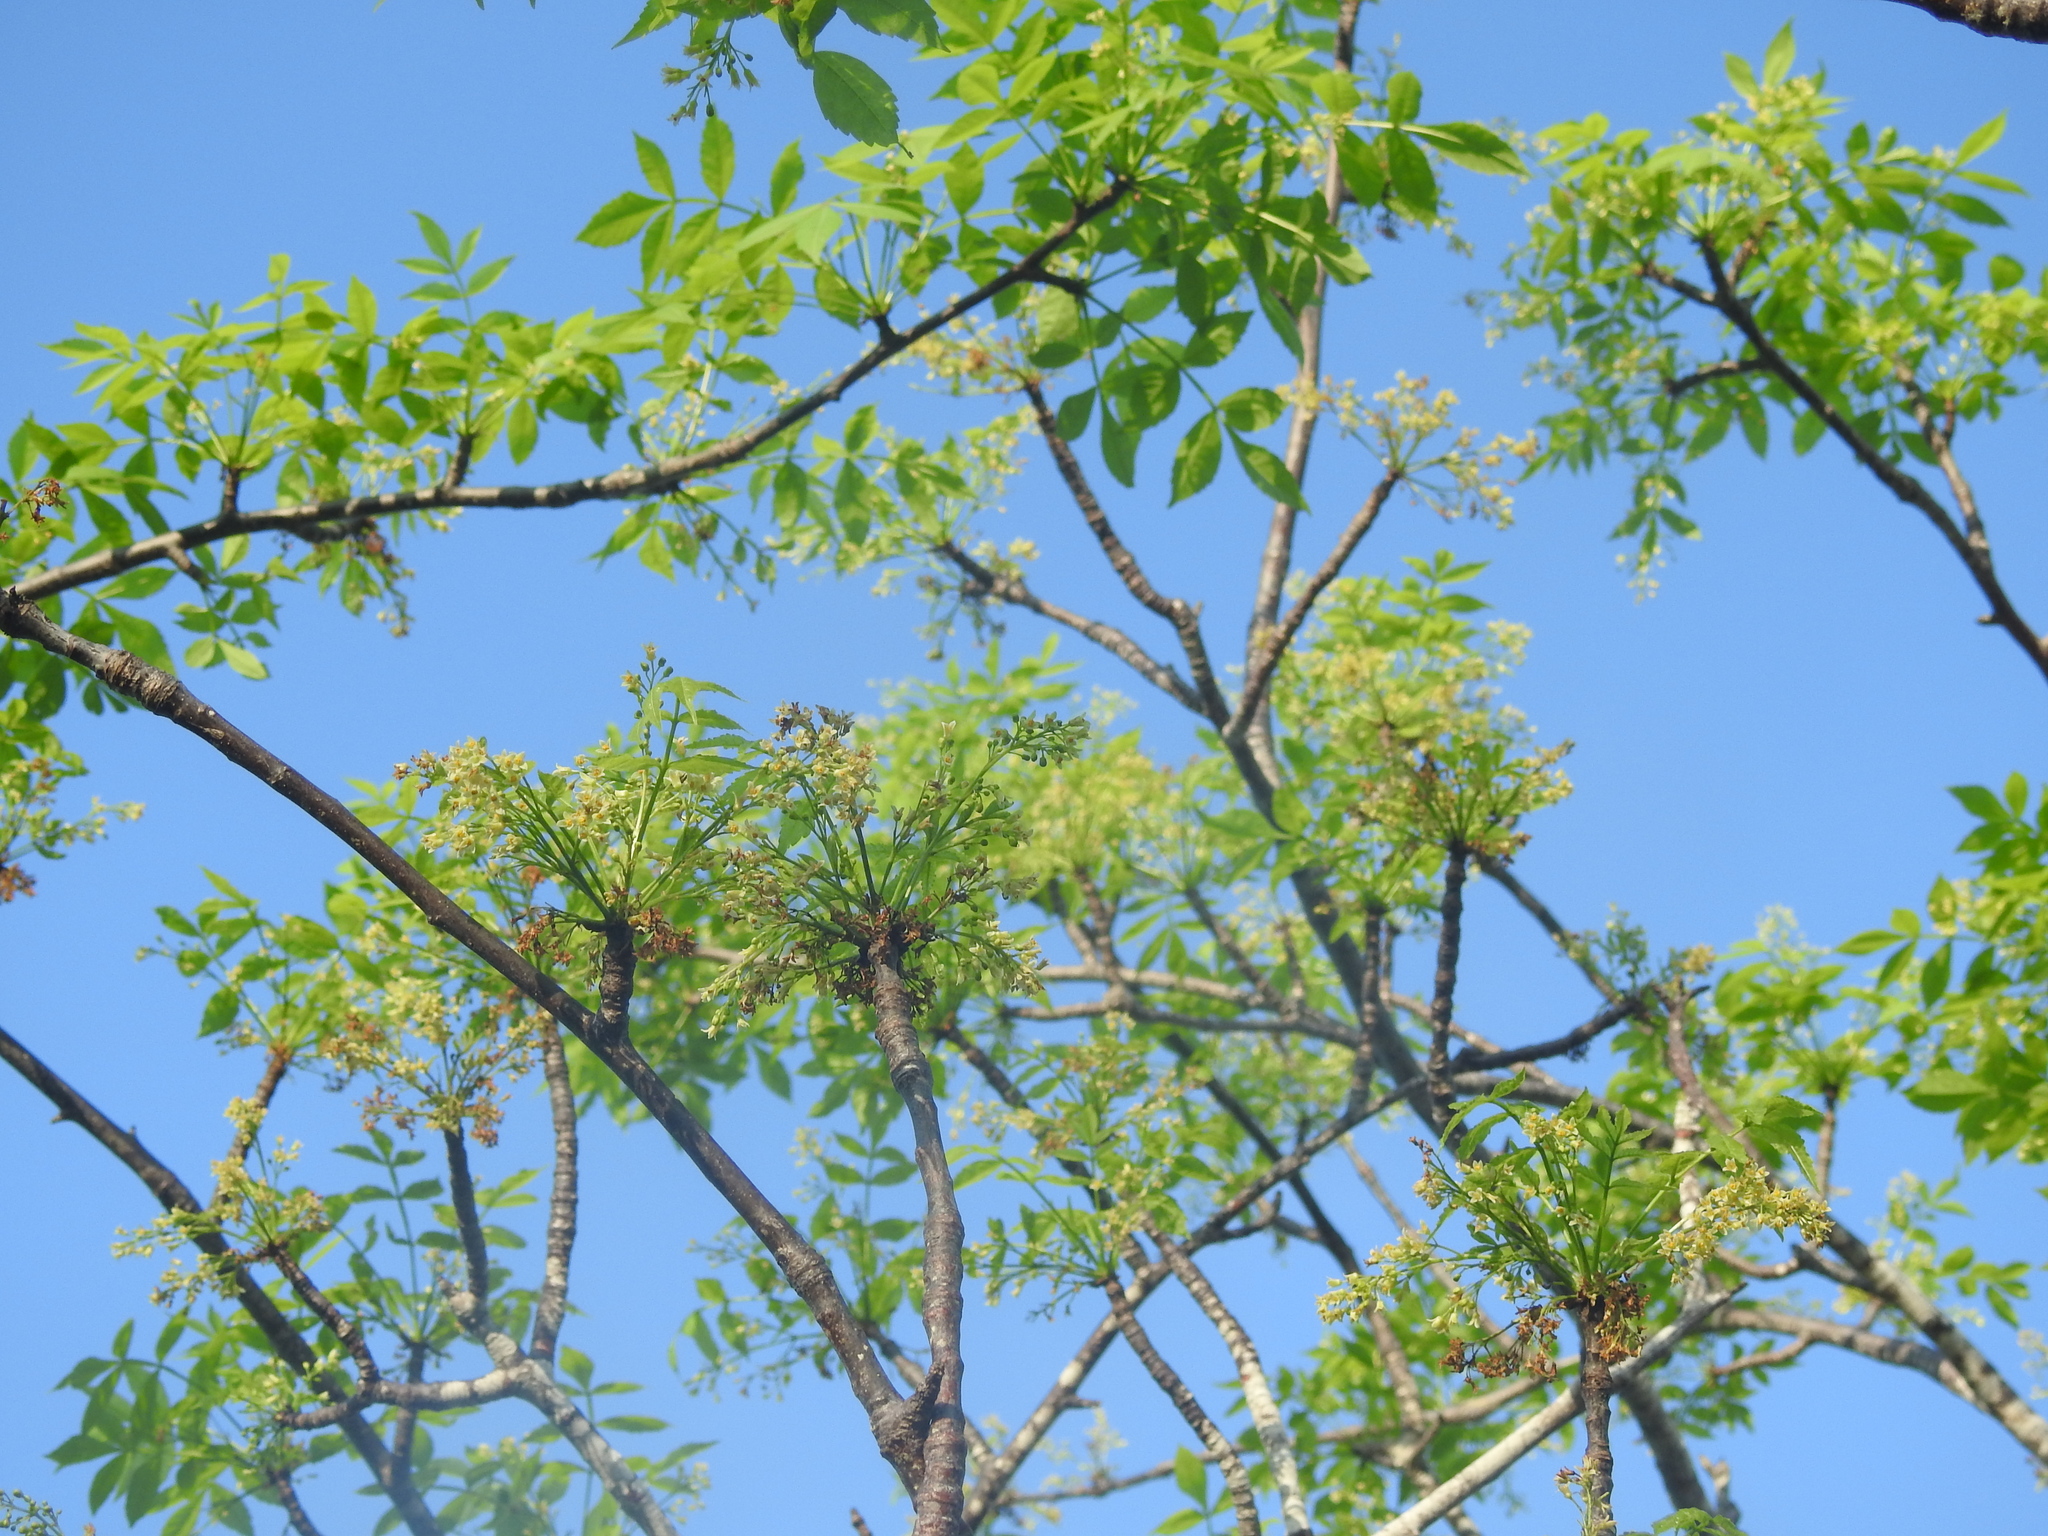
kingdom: Plantae
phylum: Tracheophyta
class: Magnoliopsida
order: Sapindales
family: Burseraceae
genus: Bursera
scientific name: Bursera graveolens
